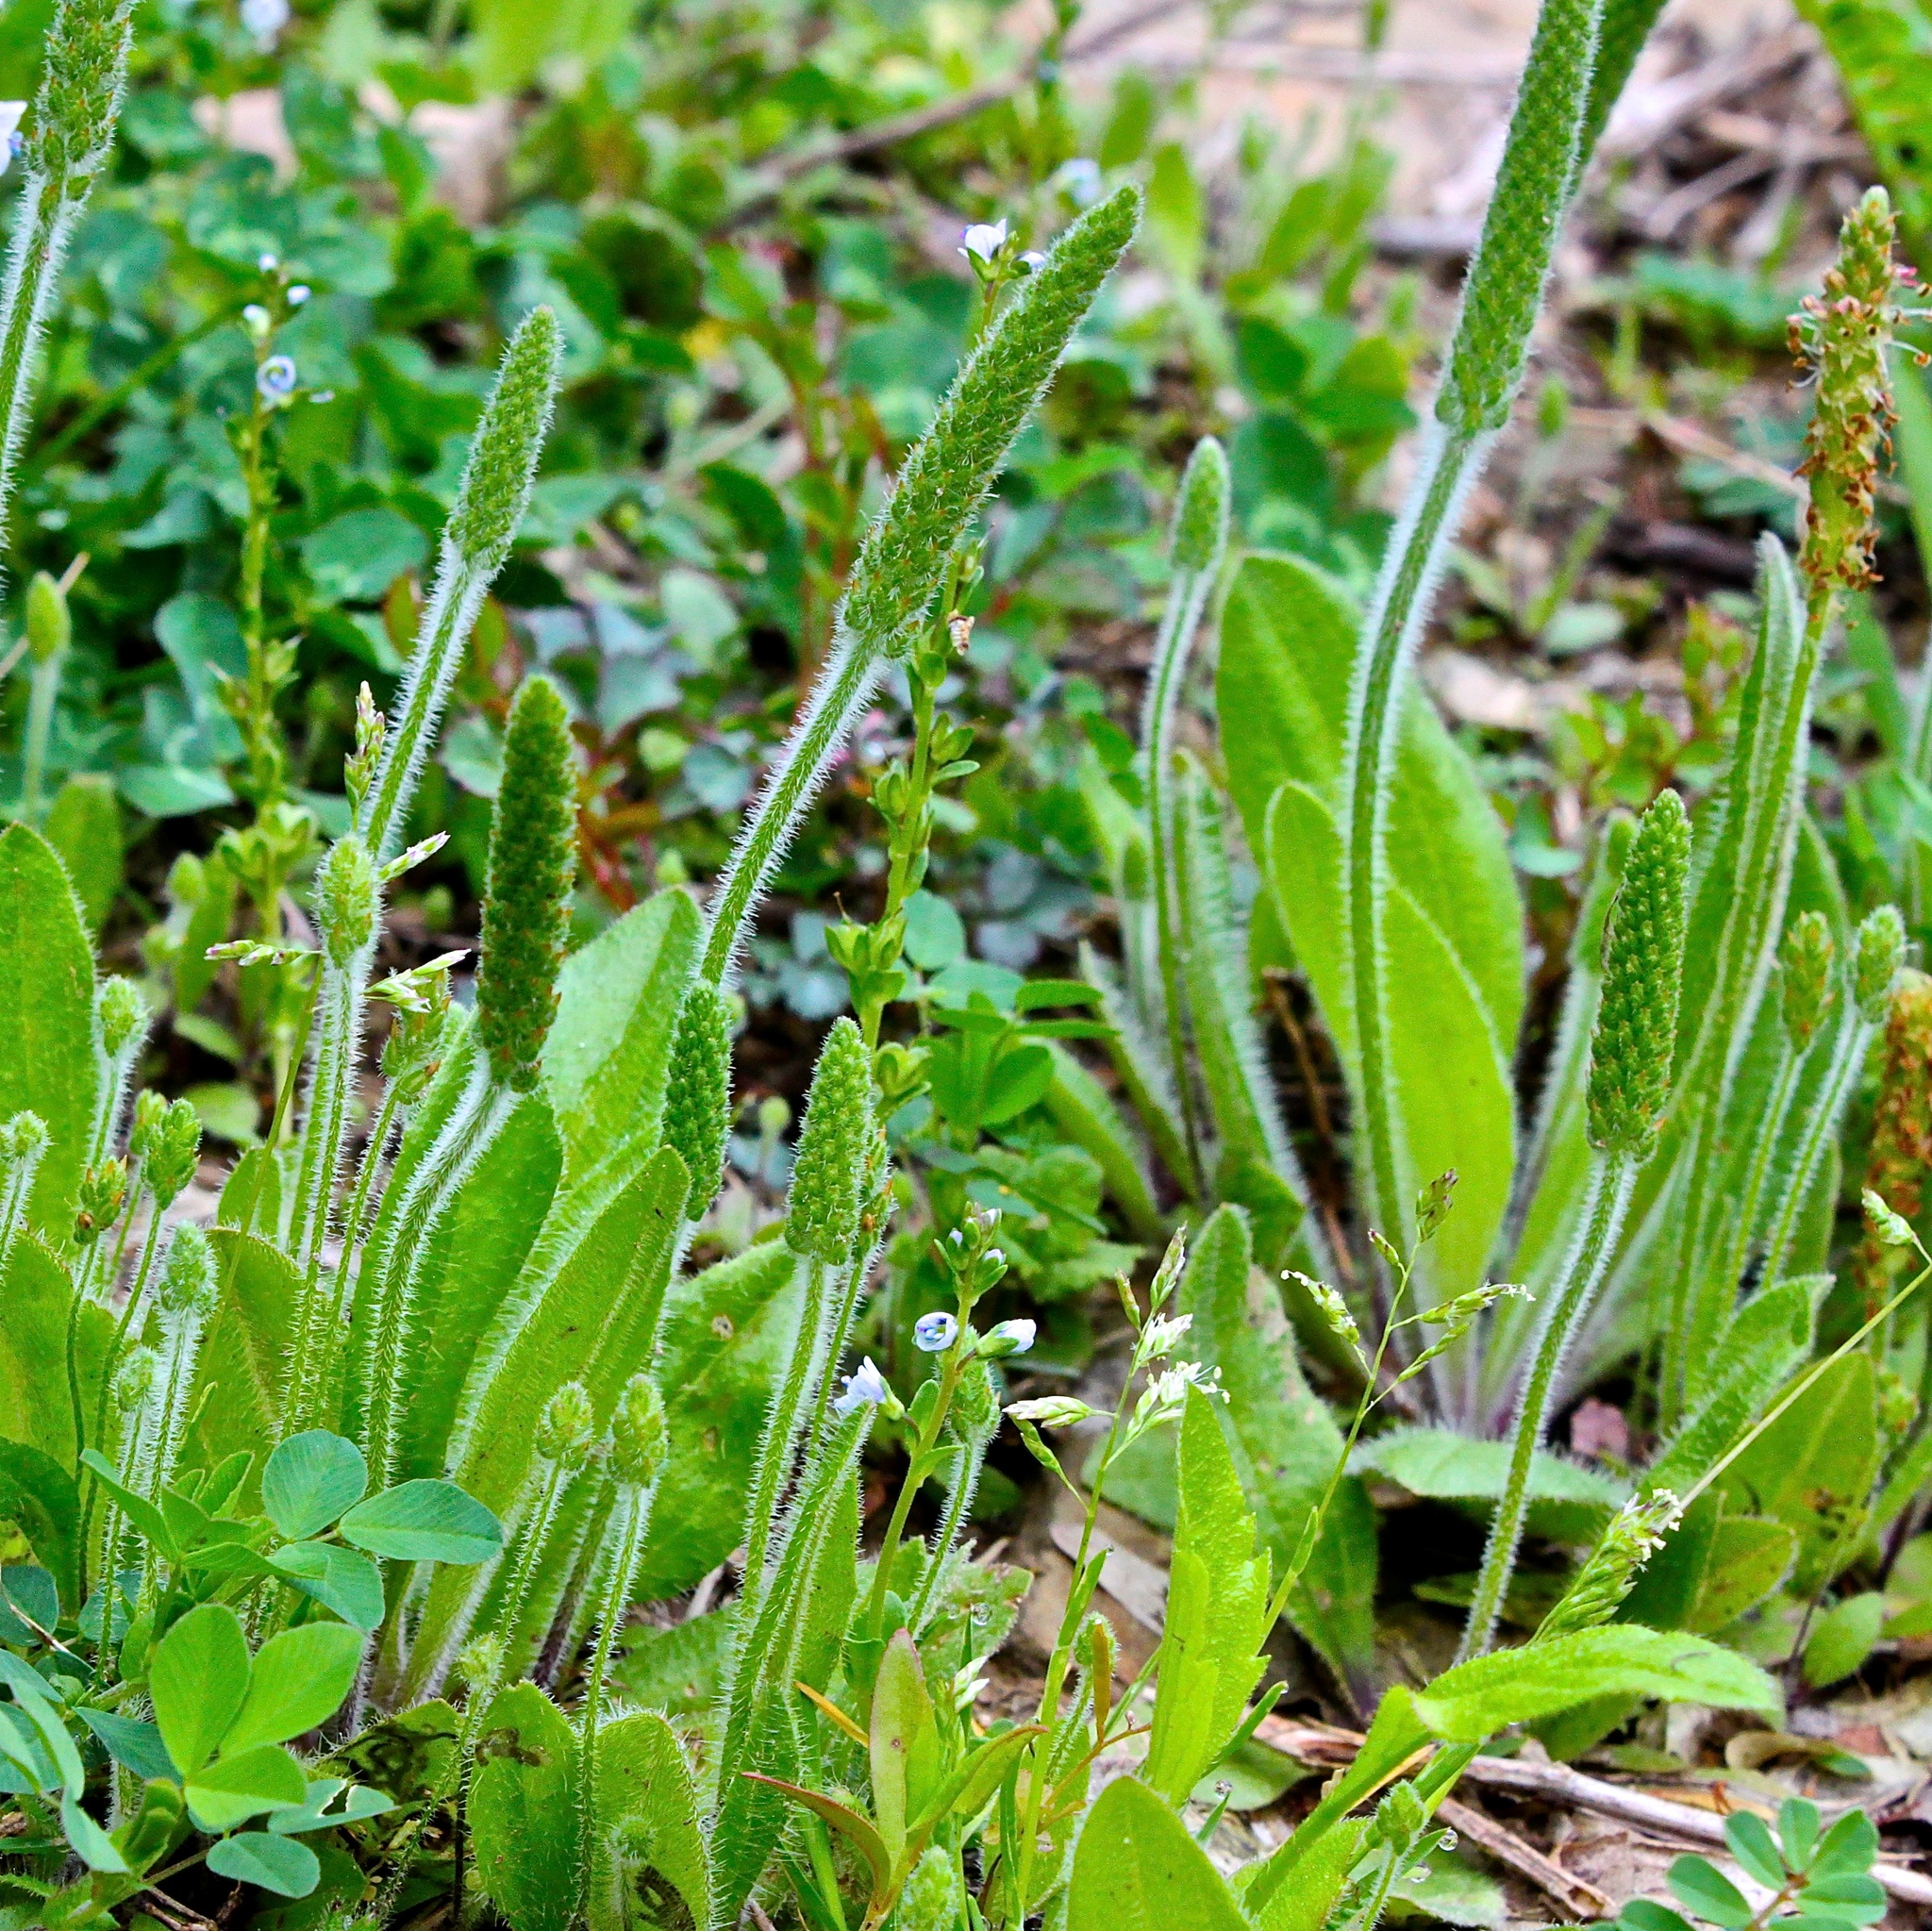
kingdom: Plantae
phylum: Tracheophyta
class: Magnoliopsida
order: Lamiales
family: Plantaginaceae
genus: Plantago
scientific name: Plantago virginica
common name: Hoary plantain
